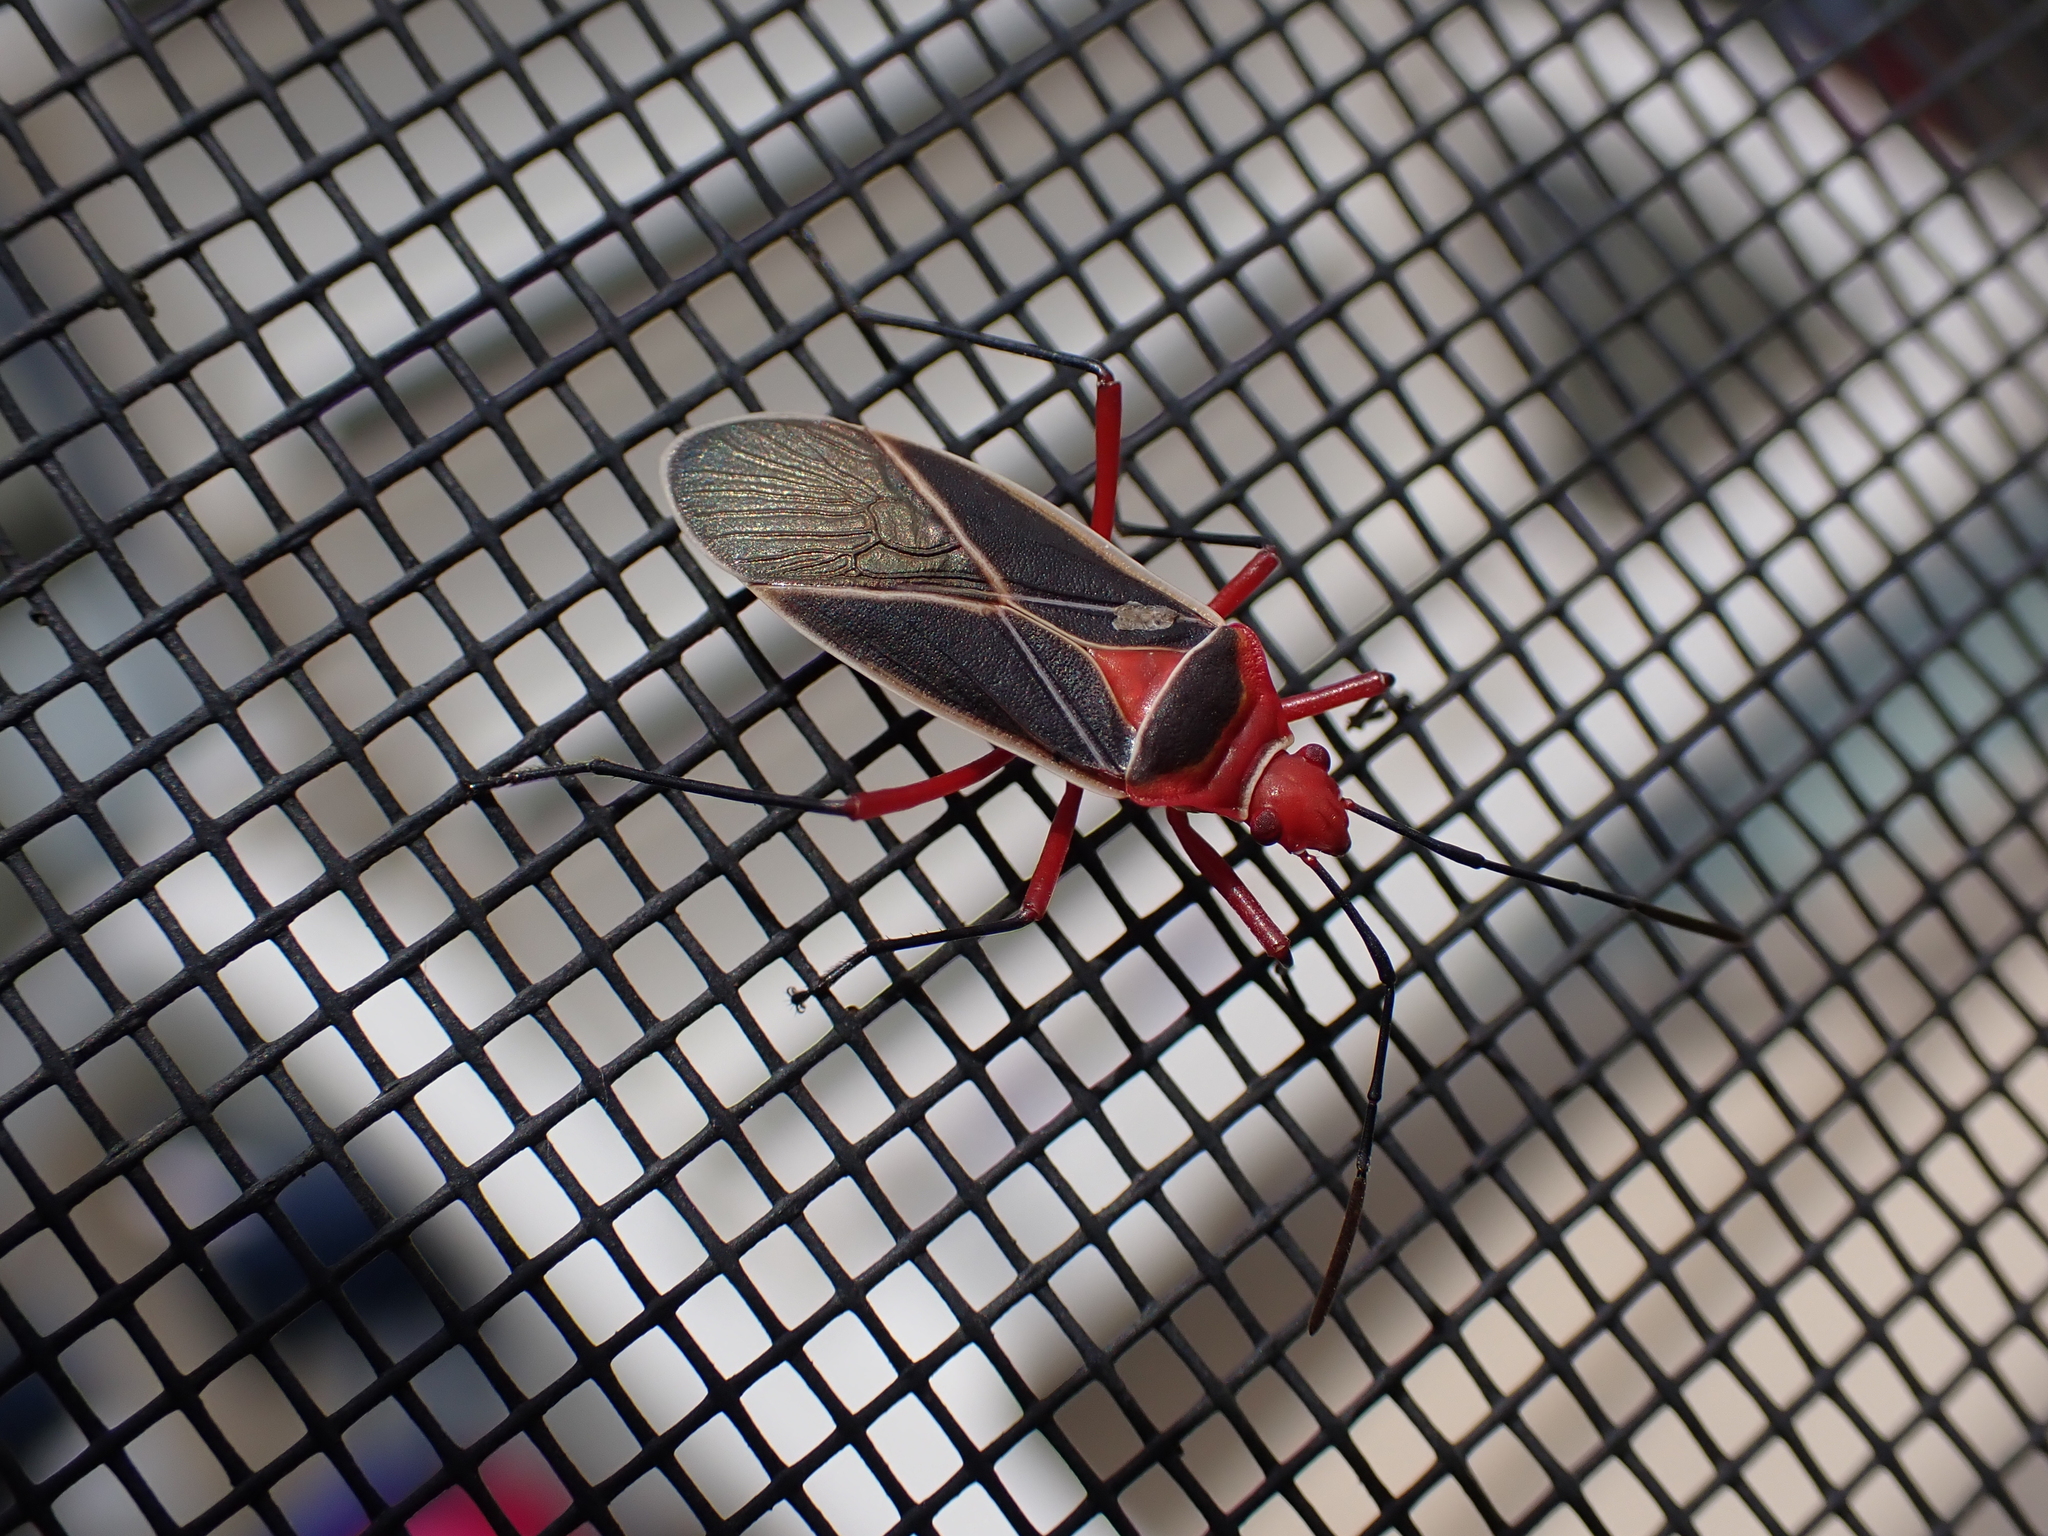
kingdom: Animalia
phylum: Arthropoda
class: Insecta
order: Hemiptera
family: Pyrrhocoridae
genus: Dysdercus
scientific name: Dysdercus suturellus
